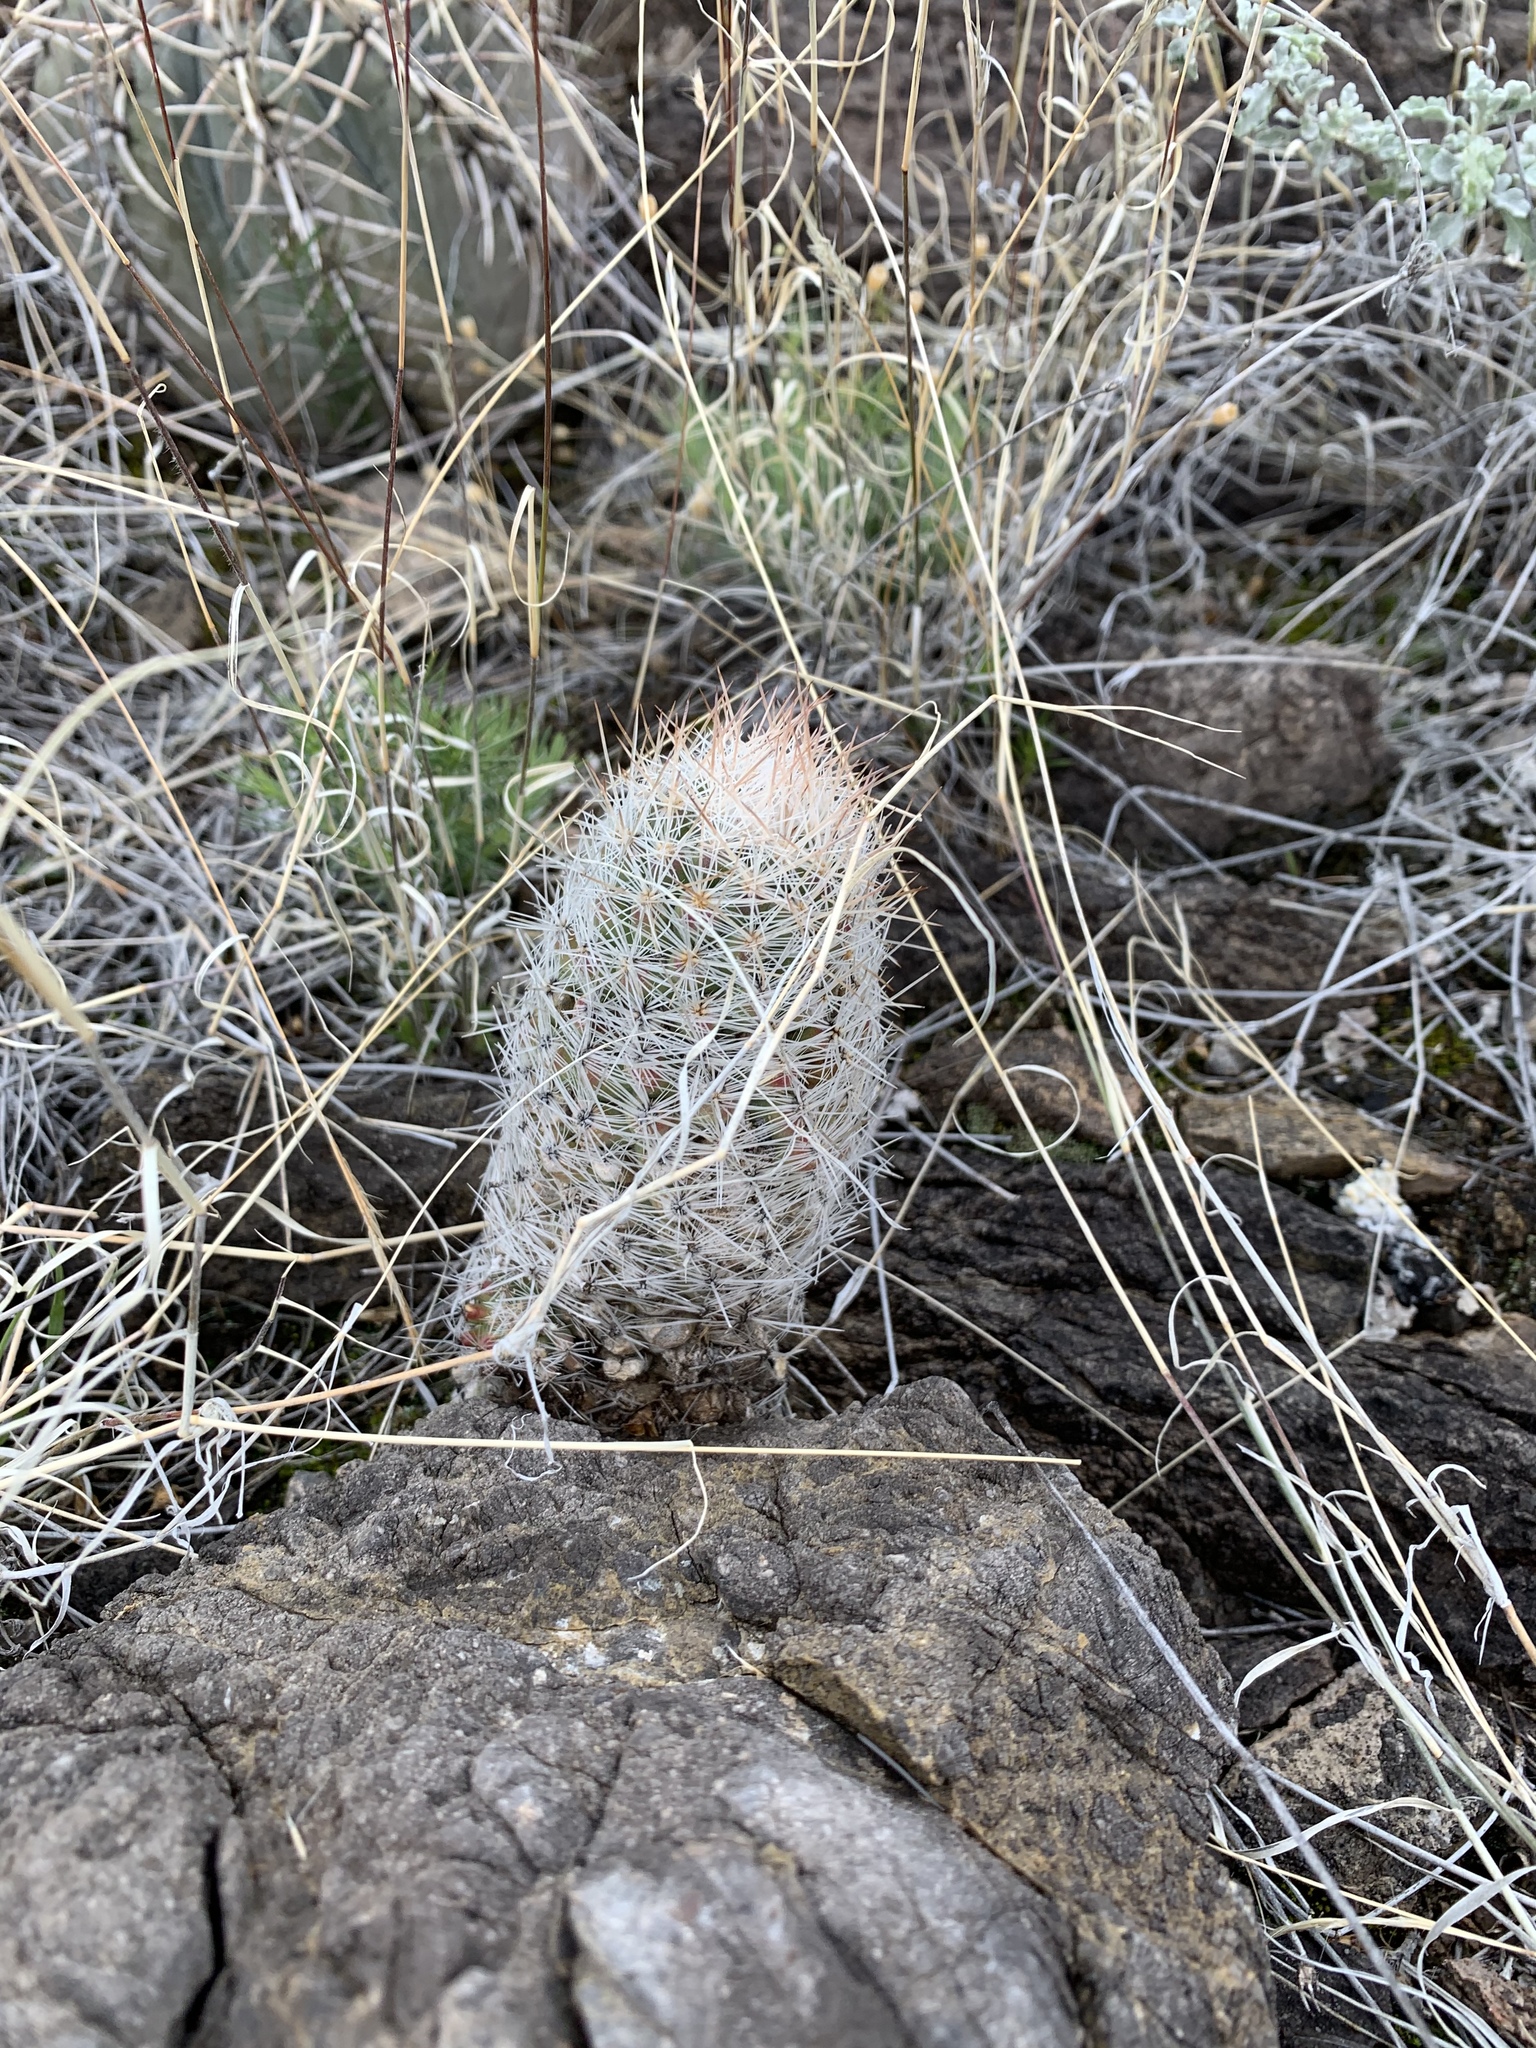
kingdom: Plantae
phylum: Tracheophyta
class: Magnoliopsida
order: Caryophyllales
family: Cactaceae
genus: Pelecyphora
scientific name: Pelecyphora tuberculosa
